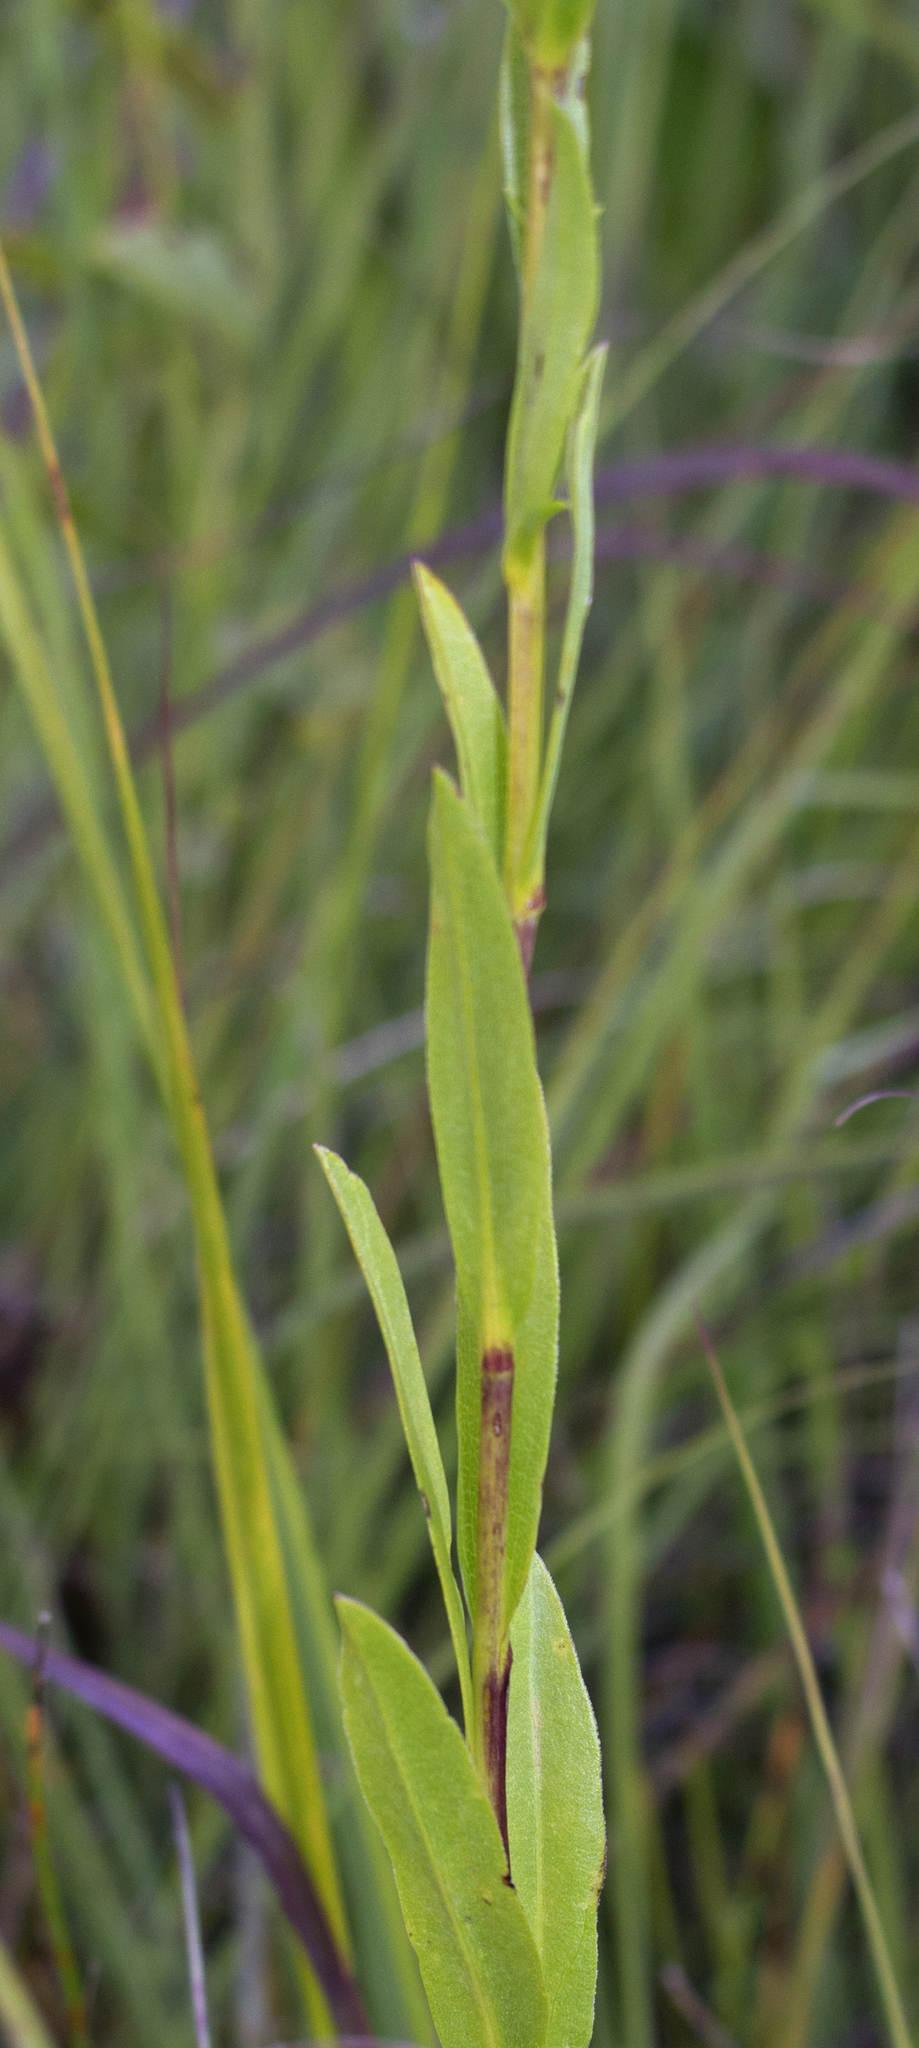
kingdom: Plantae
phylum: Tracheophyta
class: Magnoliopsida
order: Asterales
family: Asteraceae
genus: Solidago
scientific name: Solidago ohioensis
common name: Ohio goldenrod
